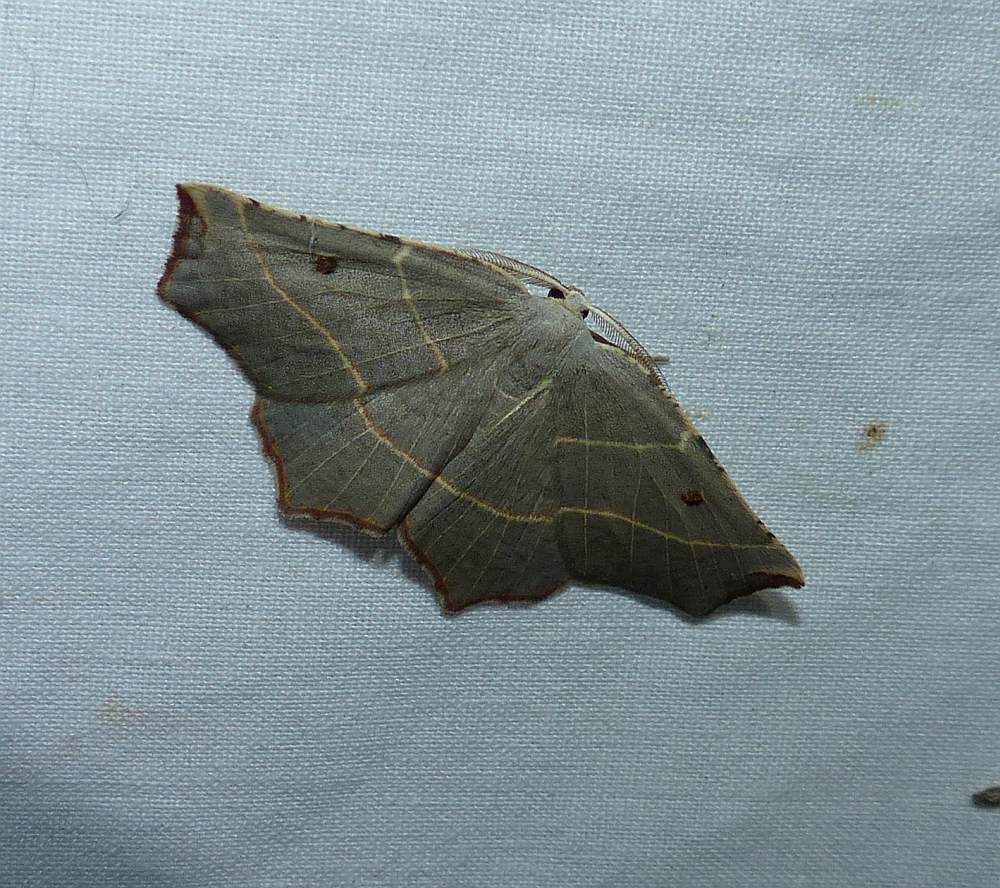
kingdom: Animalia
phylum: Arthropoda
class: Insecta
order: Lepidoptera
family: Geometridae
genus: Metanema
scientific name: Metanema inatomaria
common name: Pale metanema
